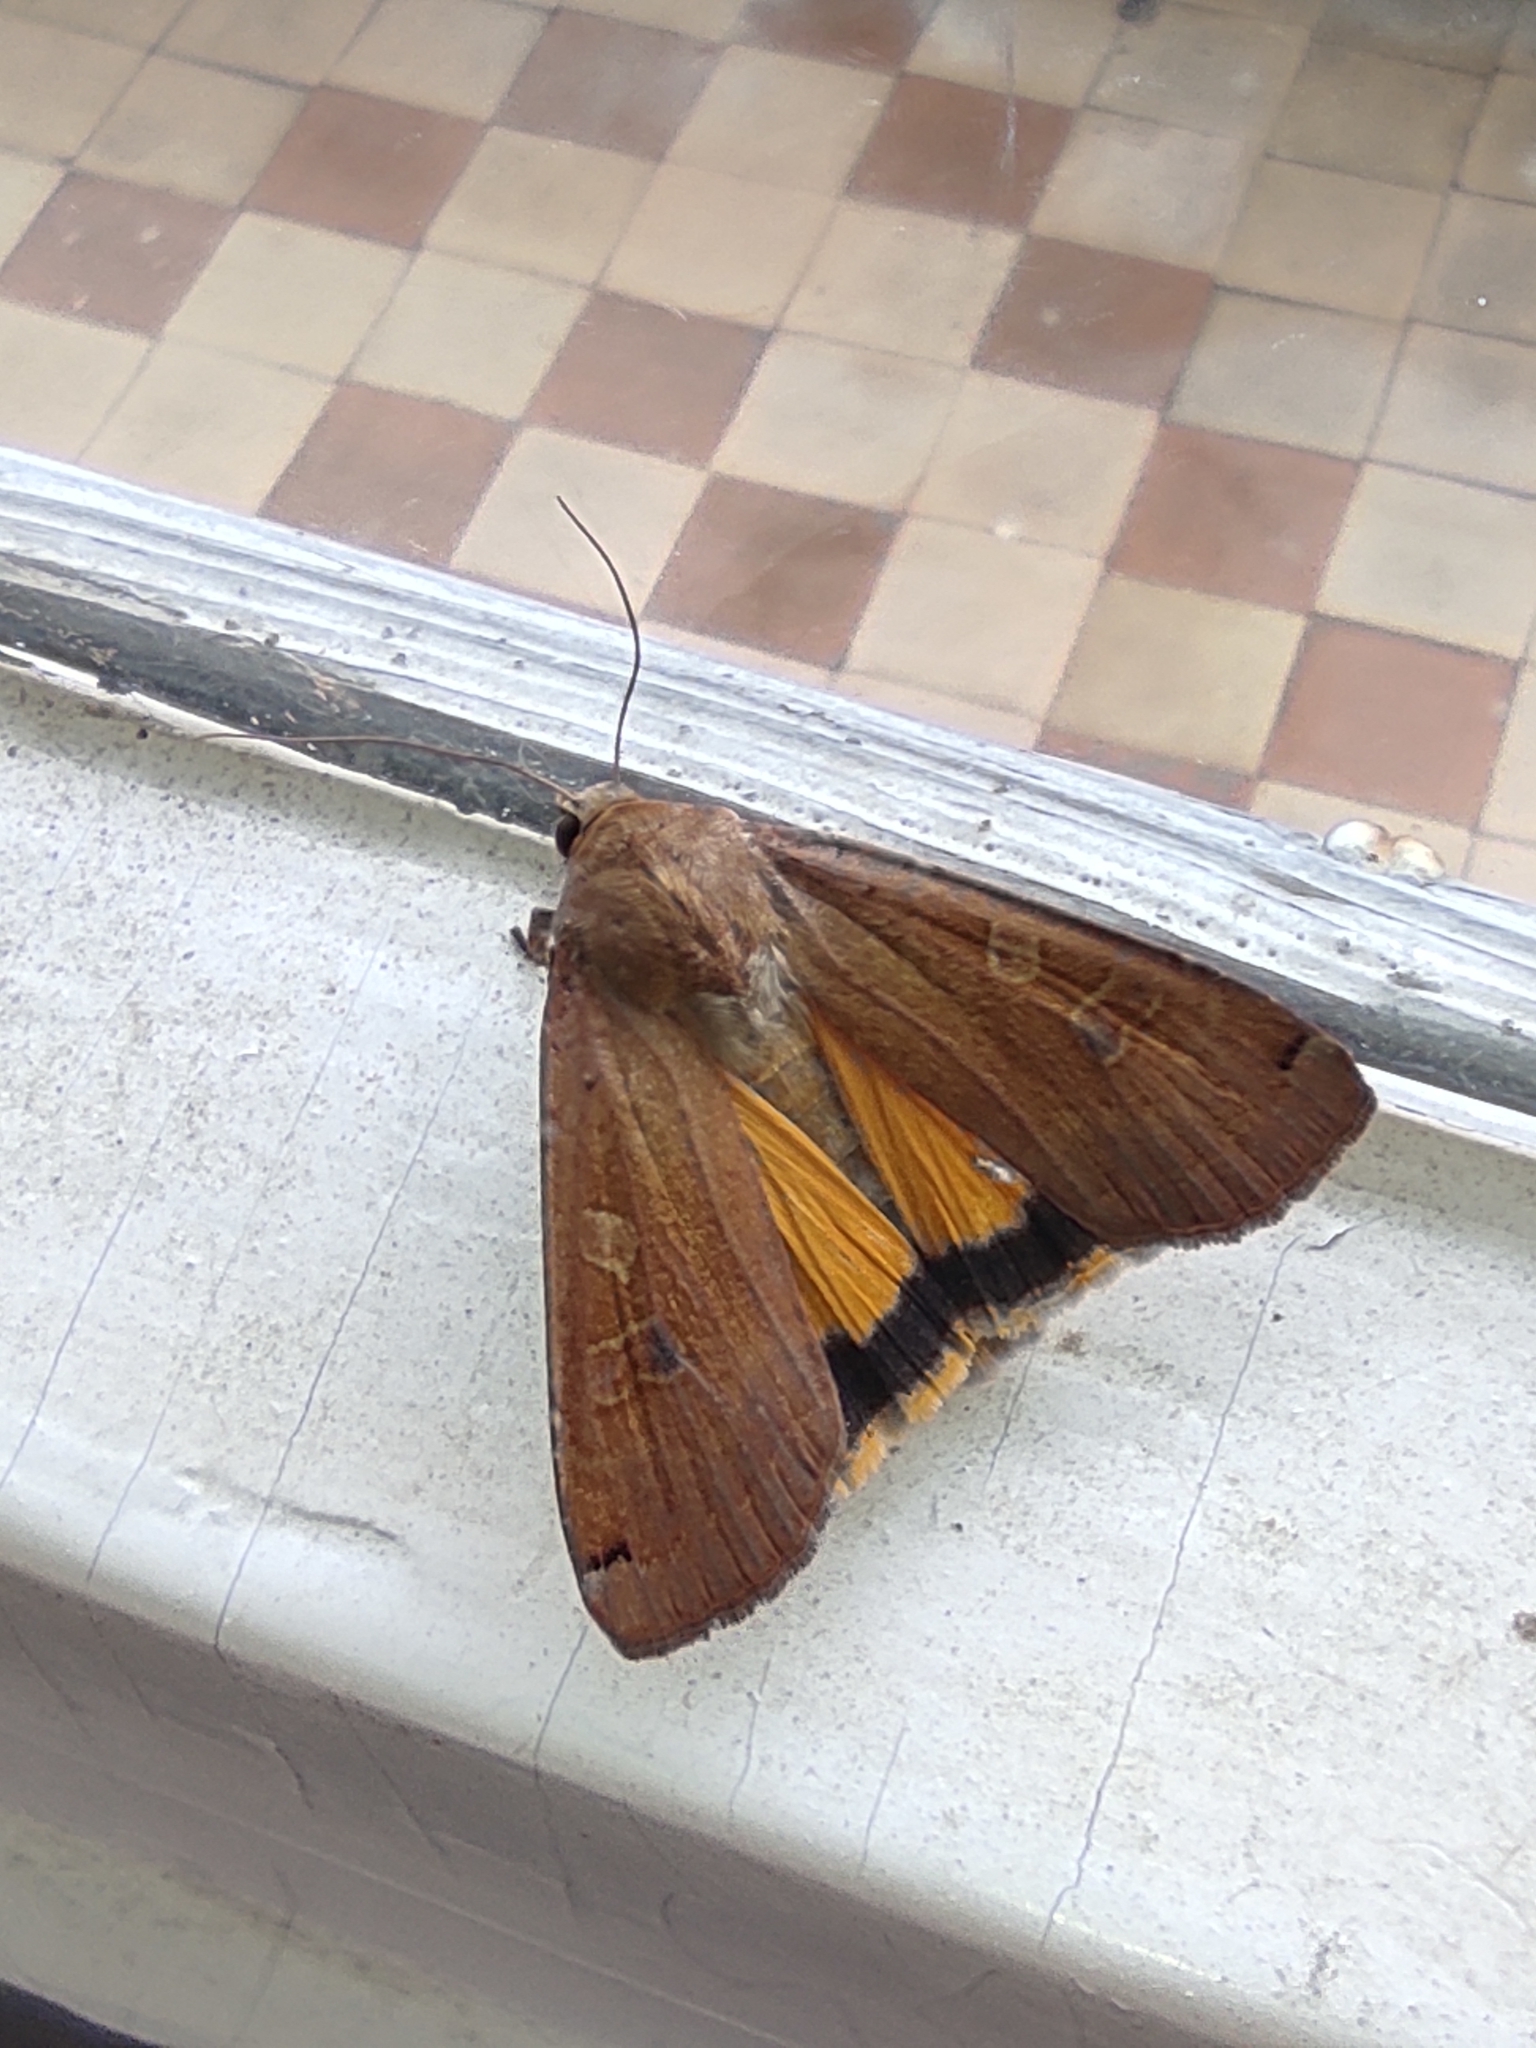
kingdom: Animalia
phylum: Arthropoda
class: Insecta
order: Lepidoptera
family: Noctuidae
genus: Noctua
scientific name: Noctua pronuba
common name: Large yellow underwing
